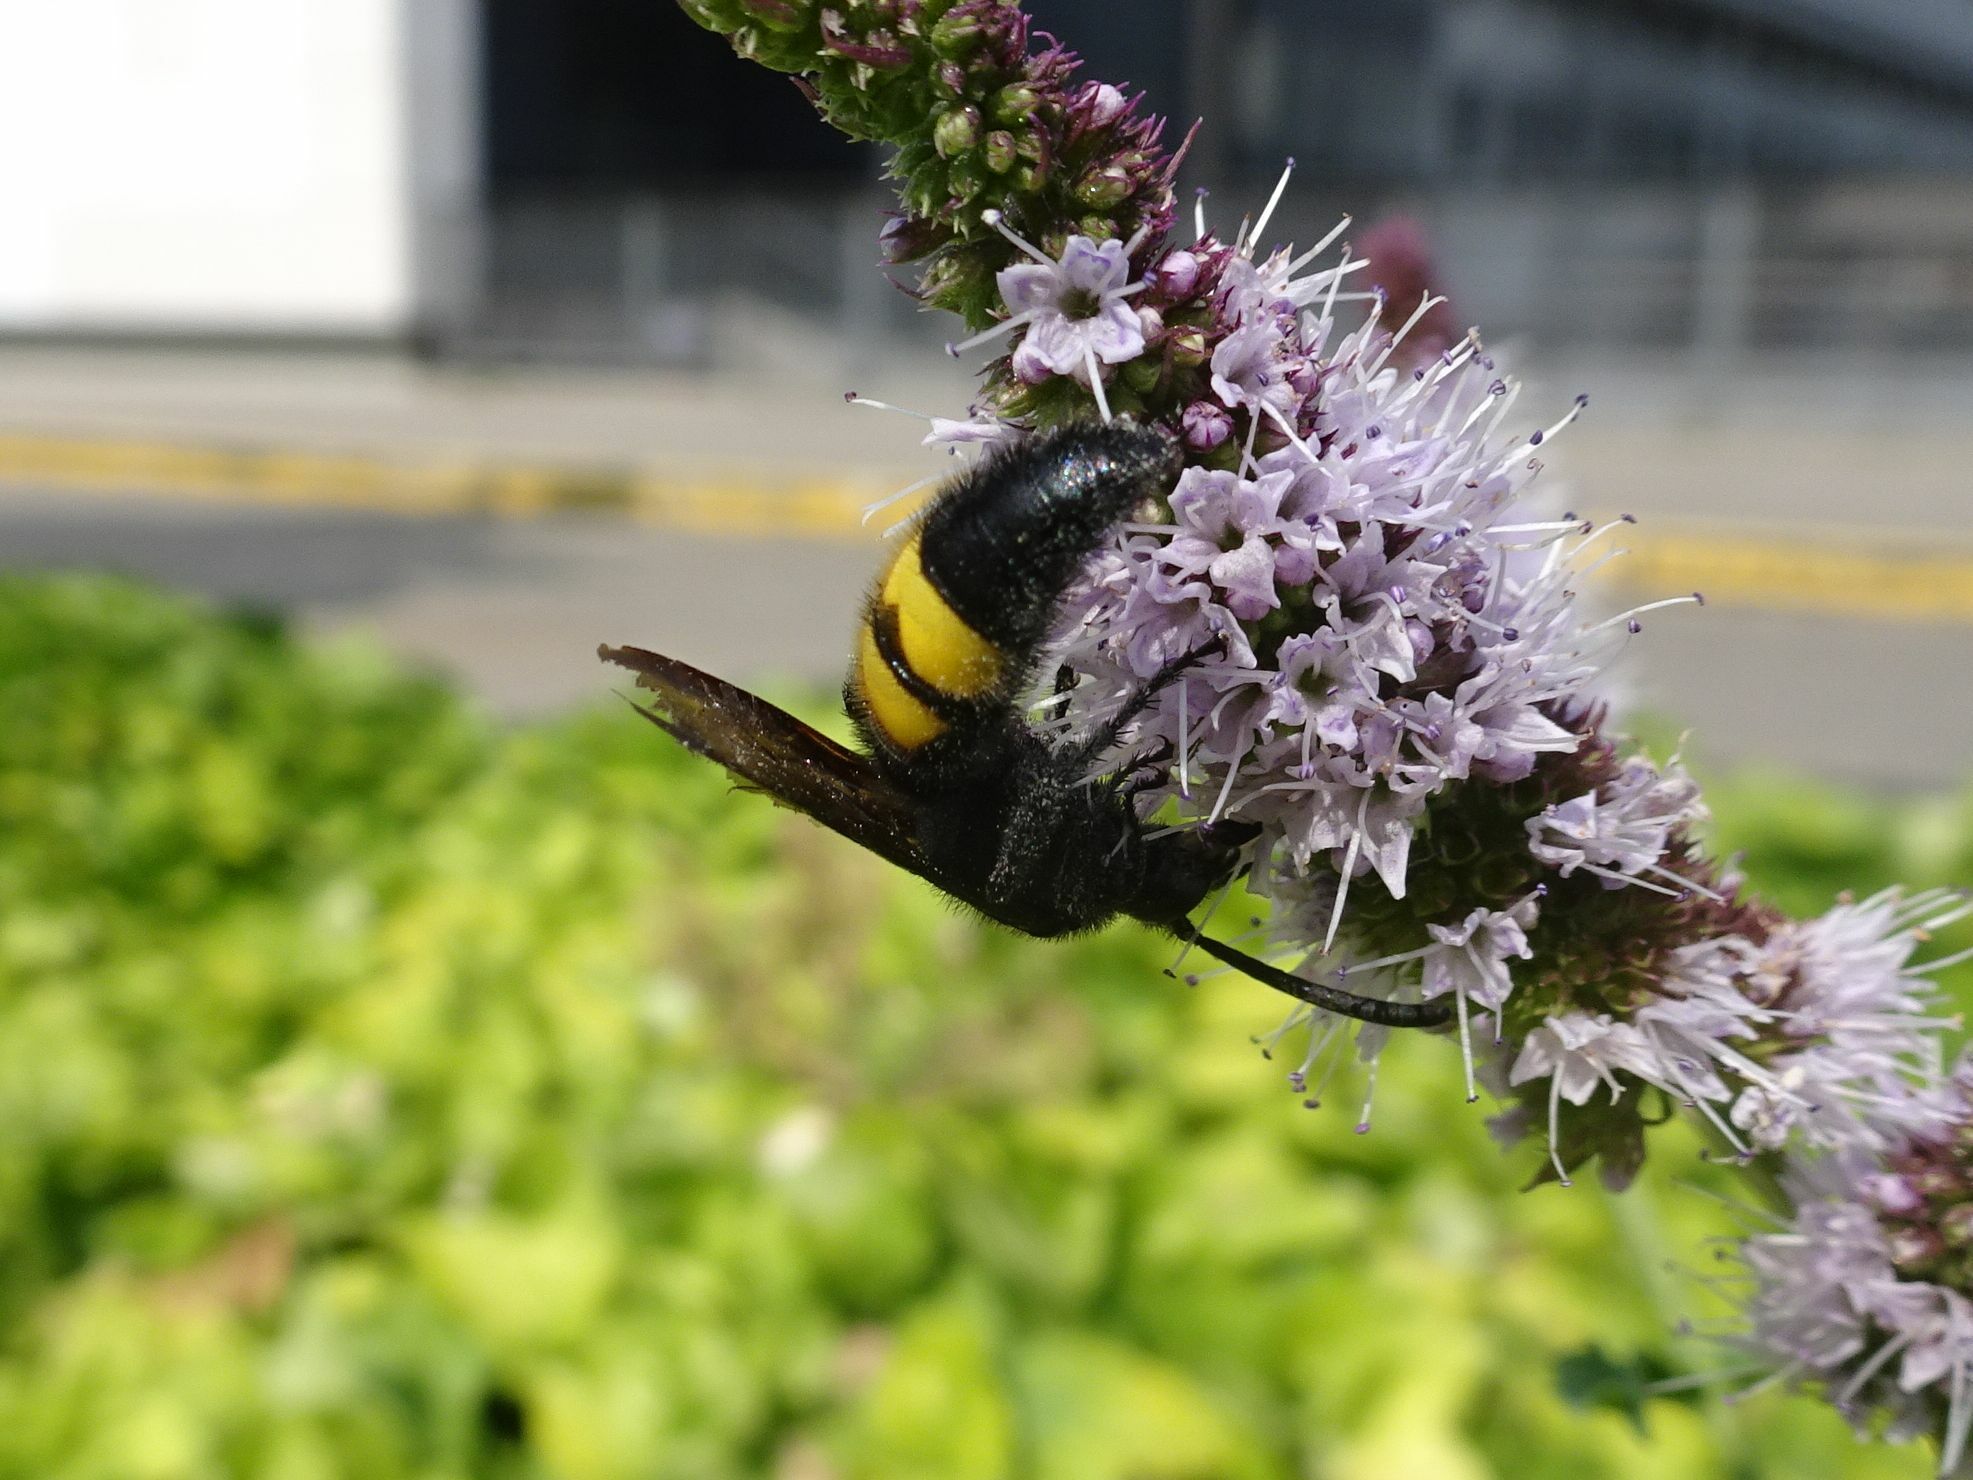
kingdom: Animalia
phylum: Arthropoda
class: Insecta
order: Hymenoptera
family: Scoliidae
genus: Scolia
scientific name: Scolia hirta
